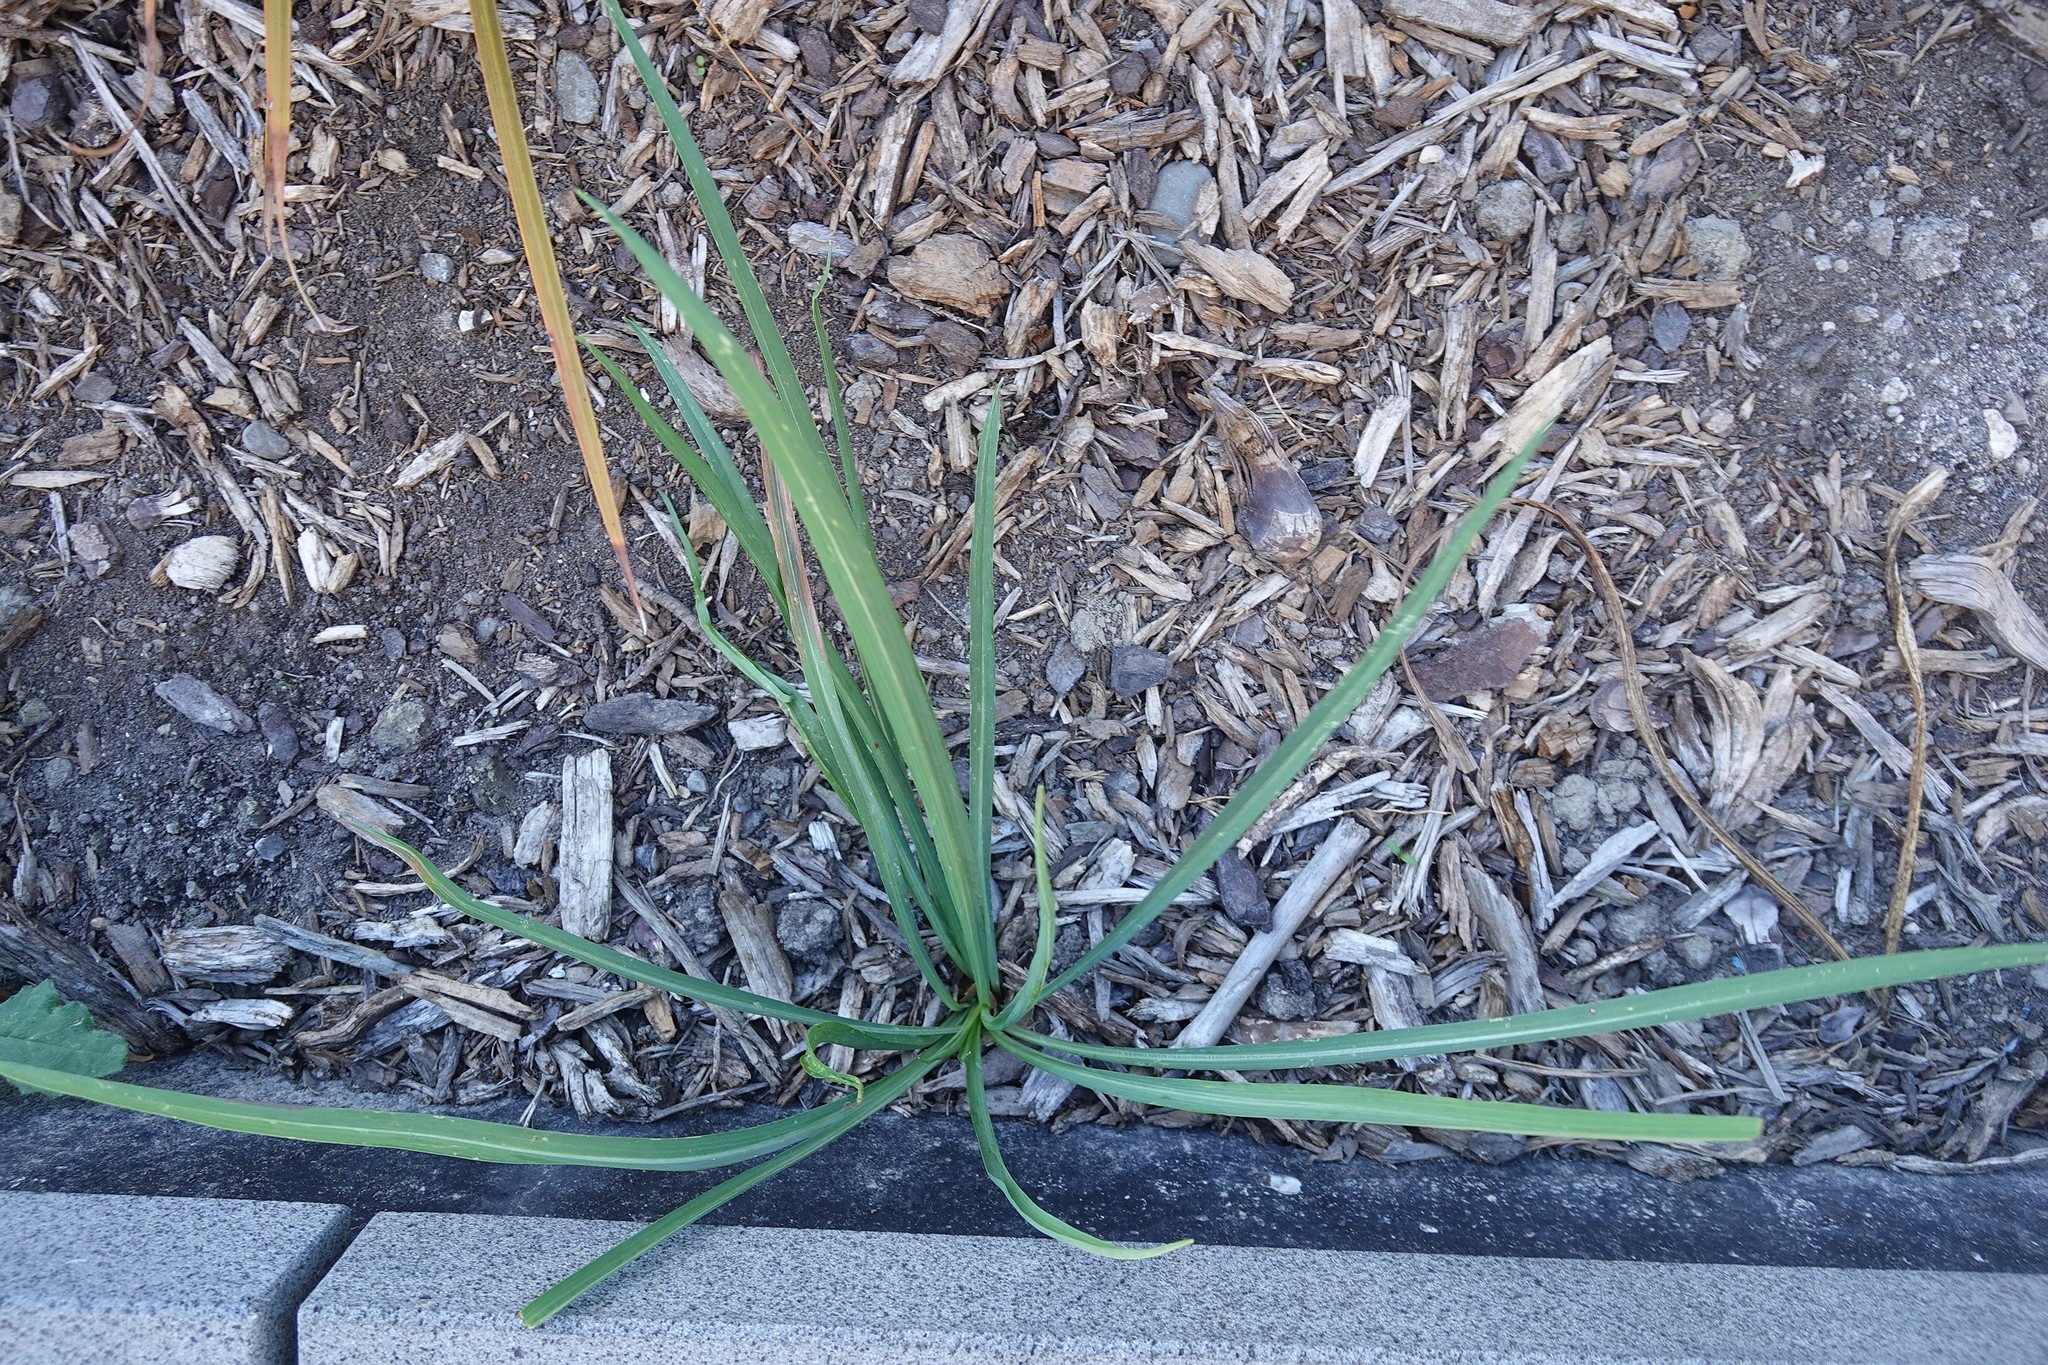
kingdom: Plantae
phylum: Tracheophyta
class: Liliopsida
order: Asparagales
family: Asparagaceae
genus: Cordyline
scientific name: Cordyline australis
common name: Cabbage-palm
